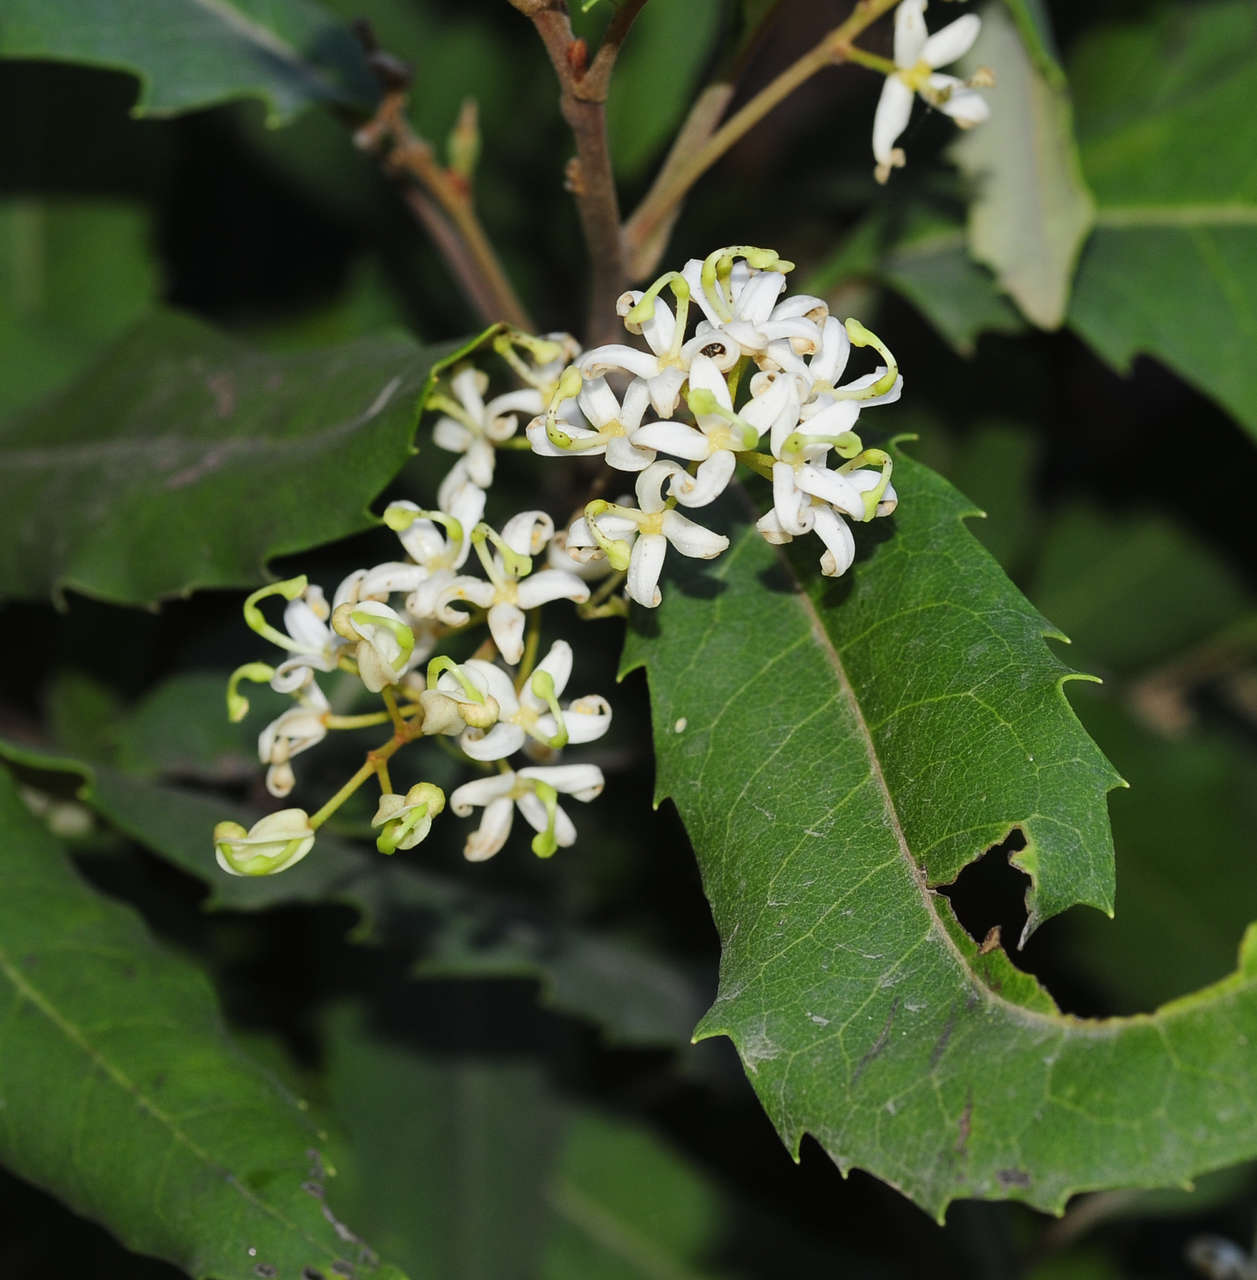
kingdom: Plantae
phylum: Tracheophyta
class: Magnoliopsida
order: Proteales
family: Proteaceae
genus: Lomatia
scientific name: Lomatia fraseri
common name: Forest lomatia
